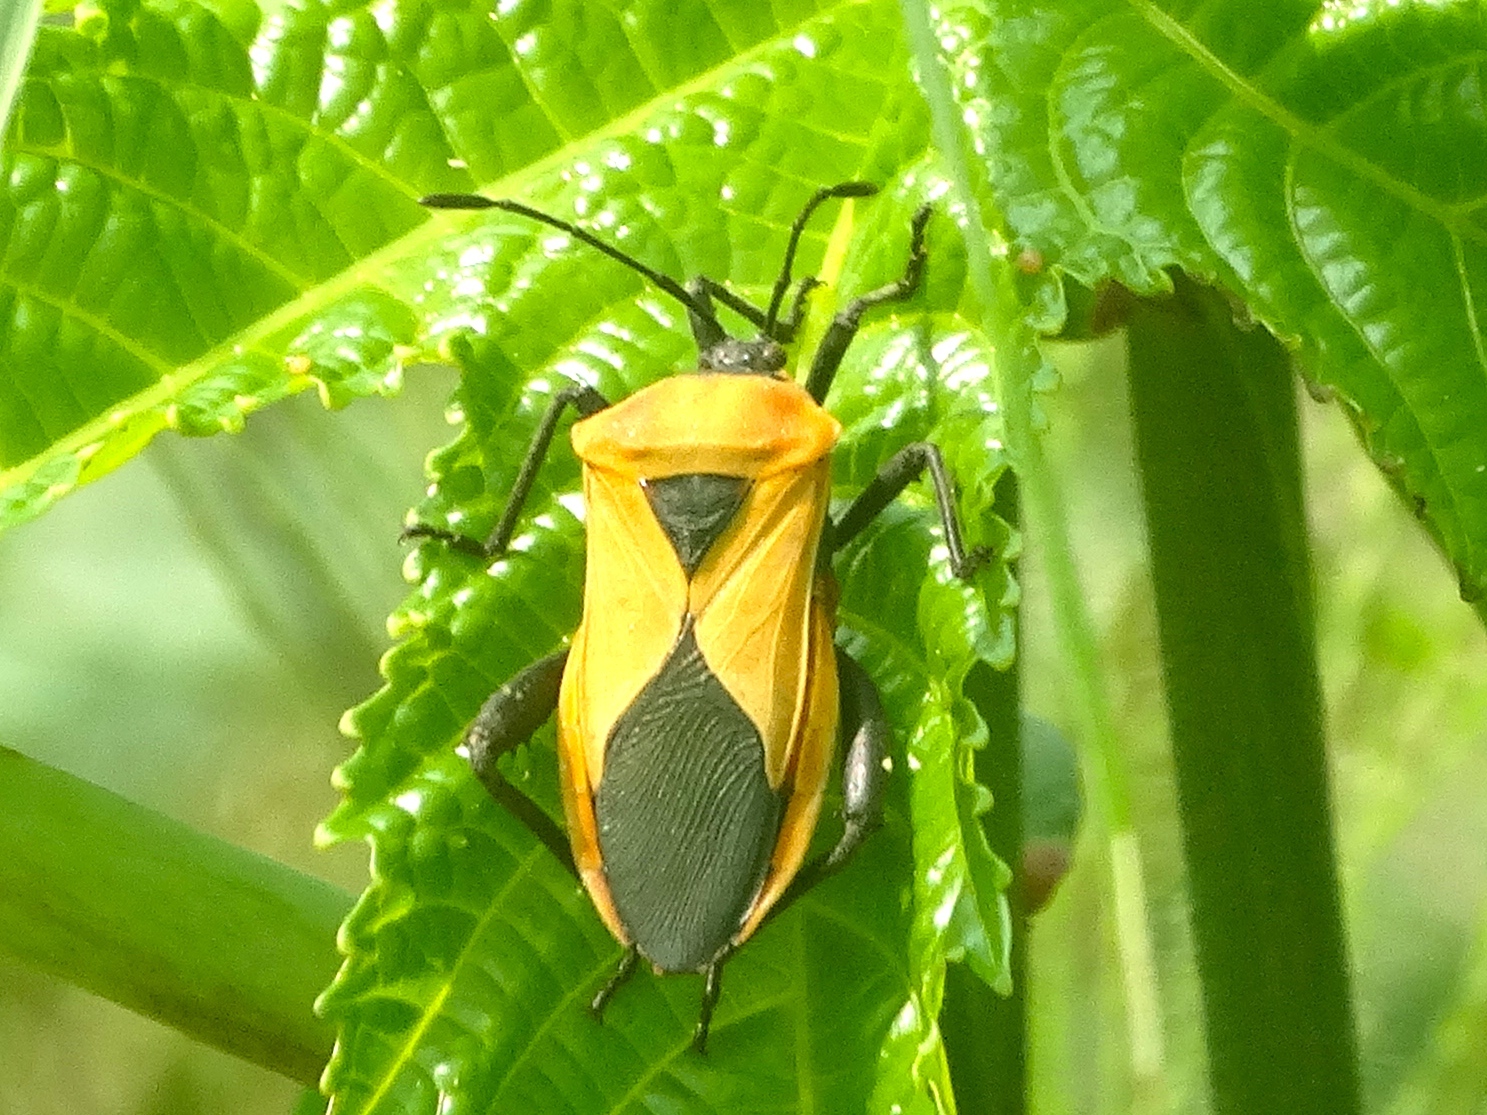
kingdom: Animalia
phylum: Arthropoda
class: Insecta
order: Hemiptera
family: Coreidae
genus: Sagotylus
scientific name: Sagotylus confluens
